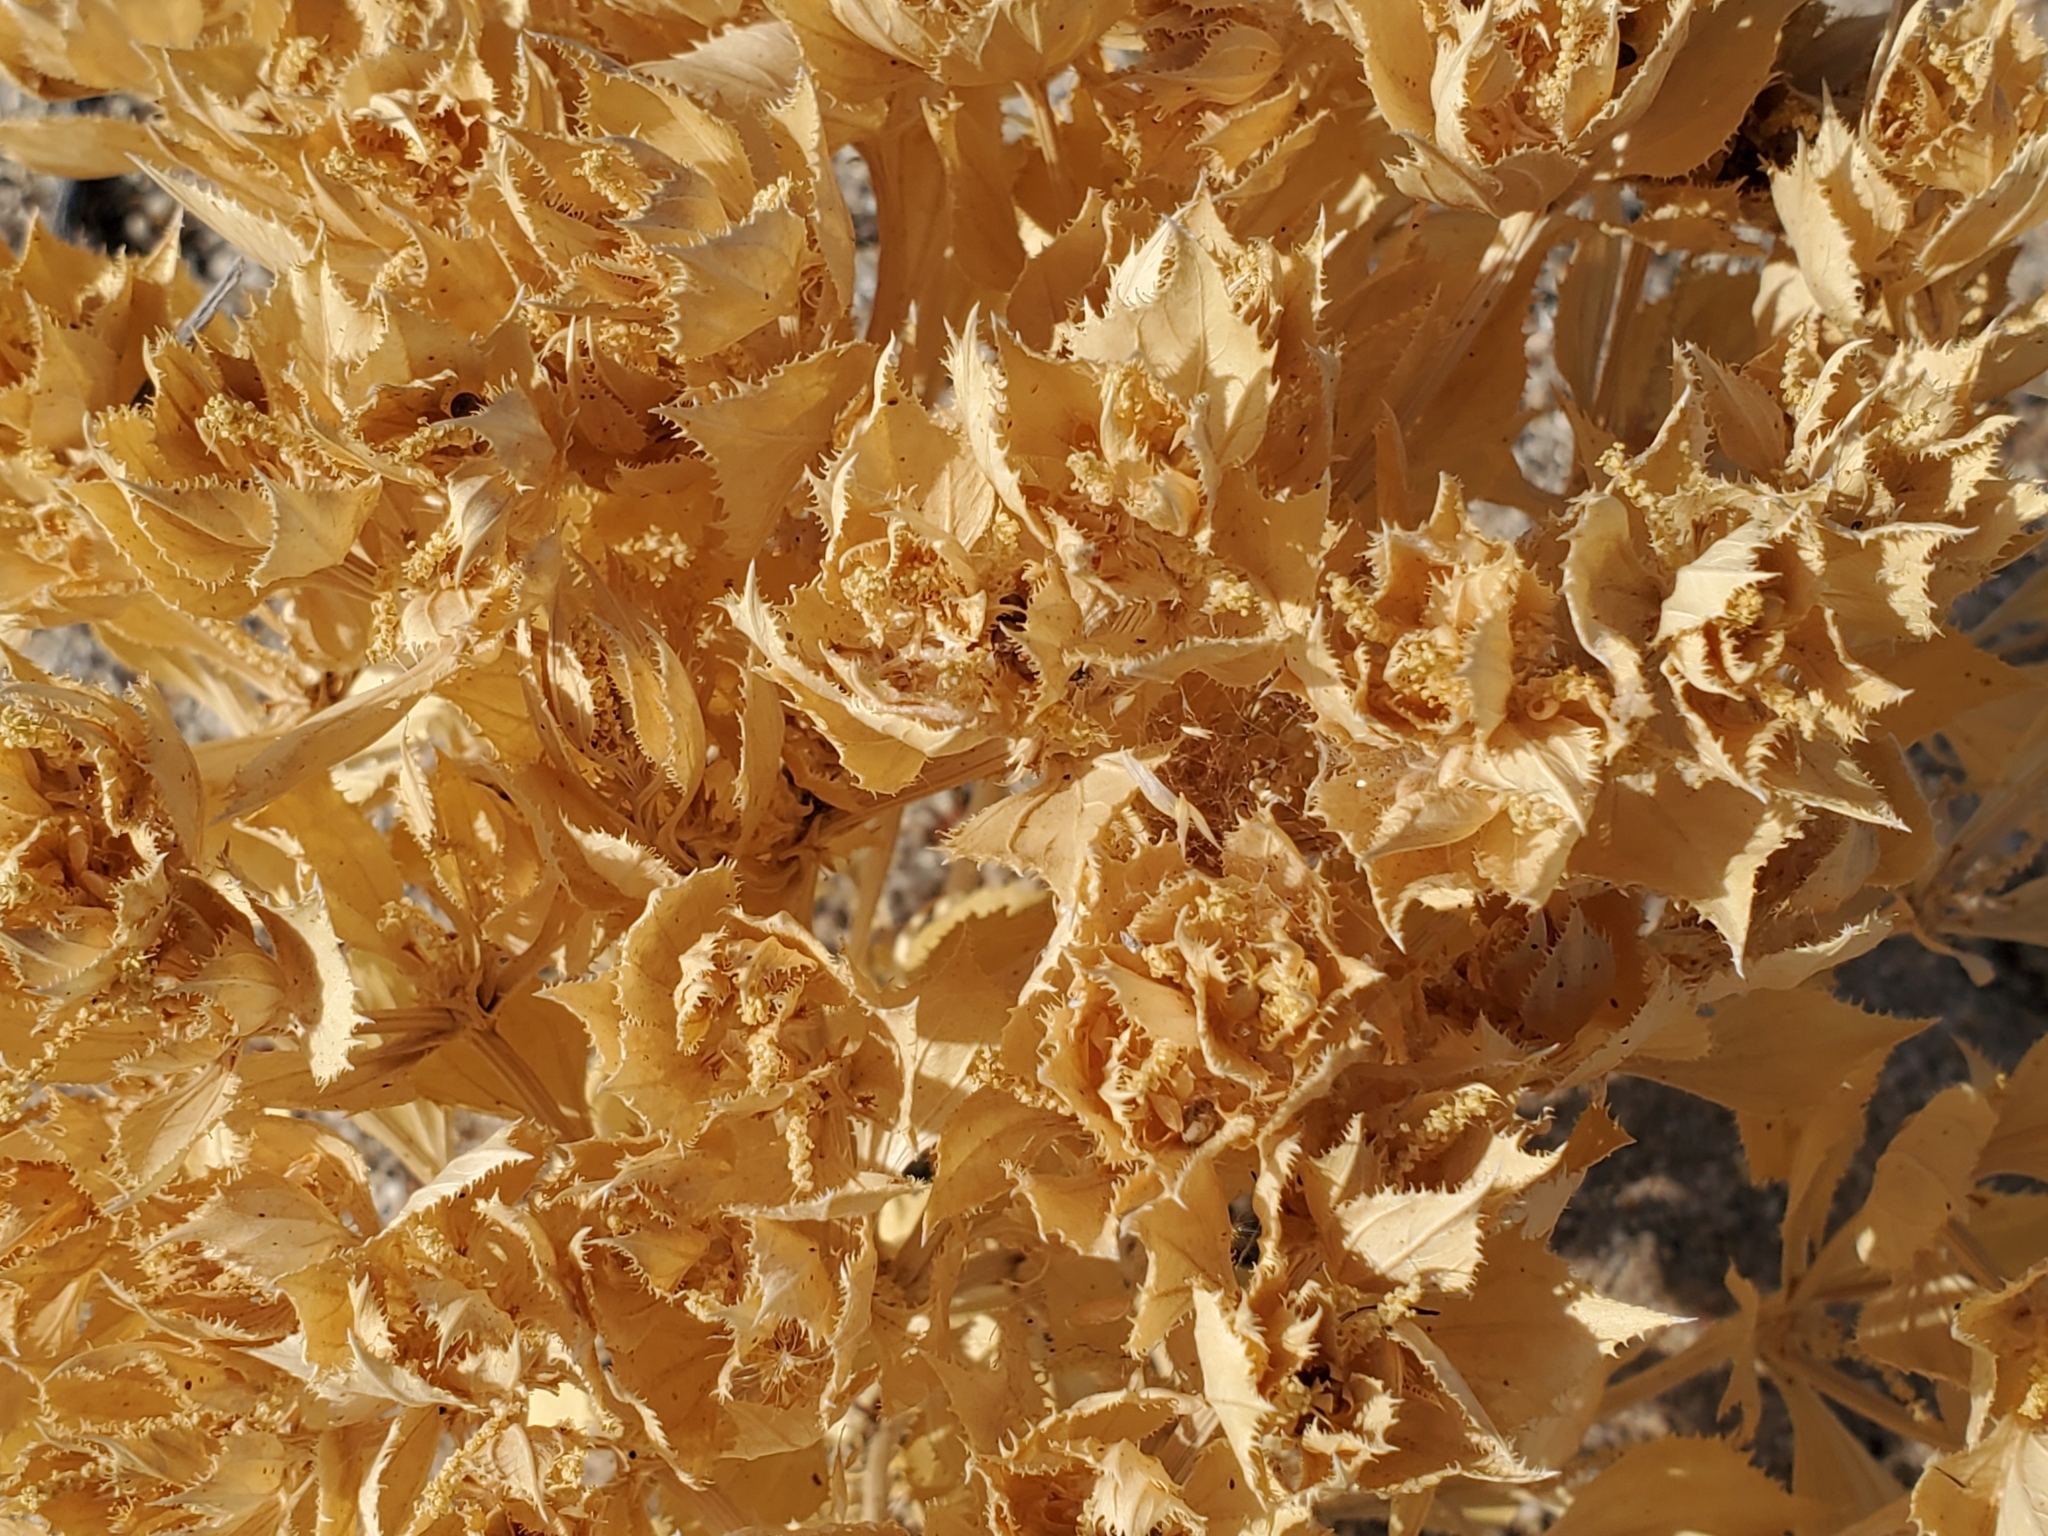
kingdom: Plantae
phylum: Tracheophyta
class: Magnoliopsida
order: Malpighiales
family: Euphorbiaceae
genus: Stillingia
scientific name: Stillingia spinulosa
